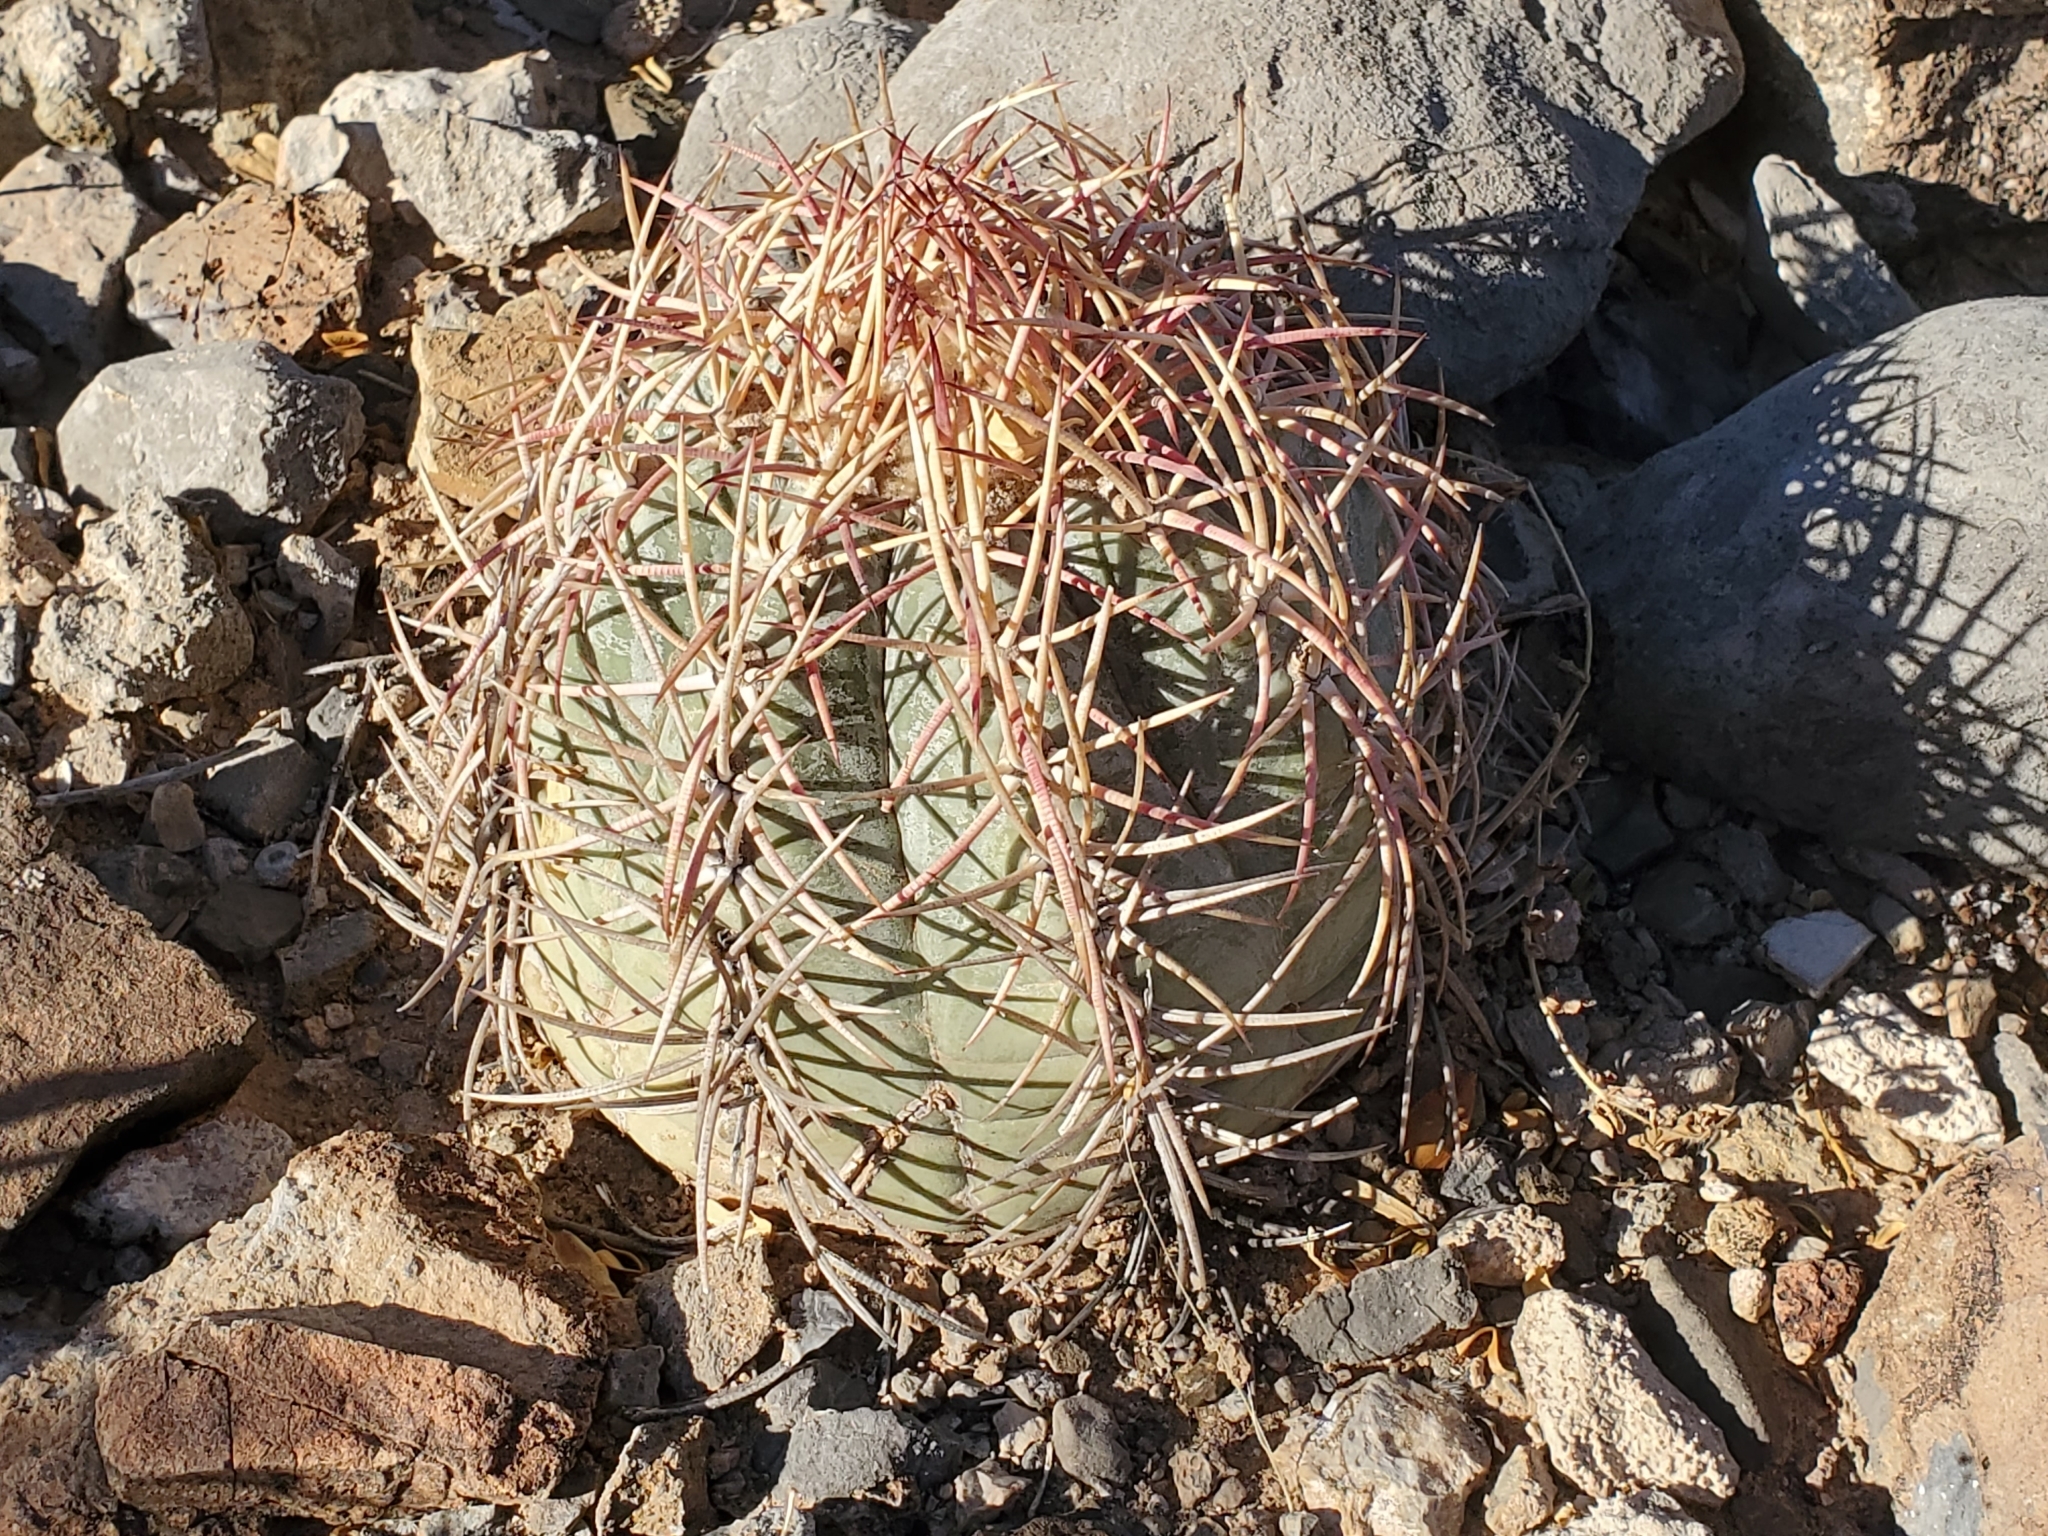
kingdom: Plantae
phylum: Tracheophyta
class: Magnoliopsida
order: Caryophyllales
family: Cactaceae
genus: Echinocactus
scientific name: Echinocactus horizonthalonius
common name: Devilshead
